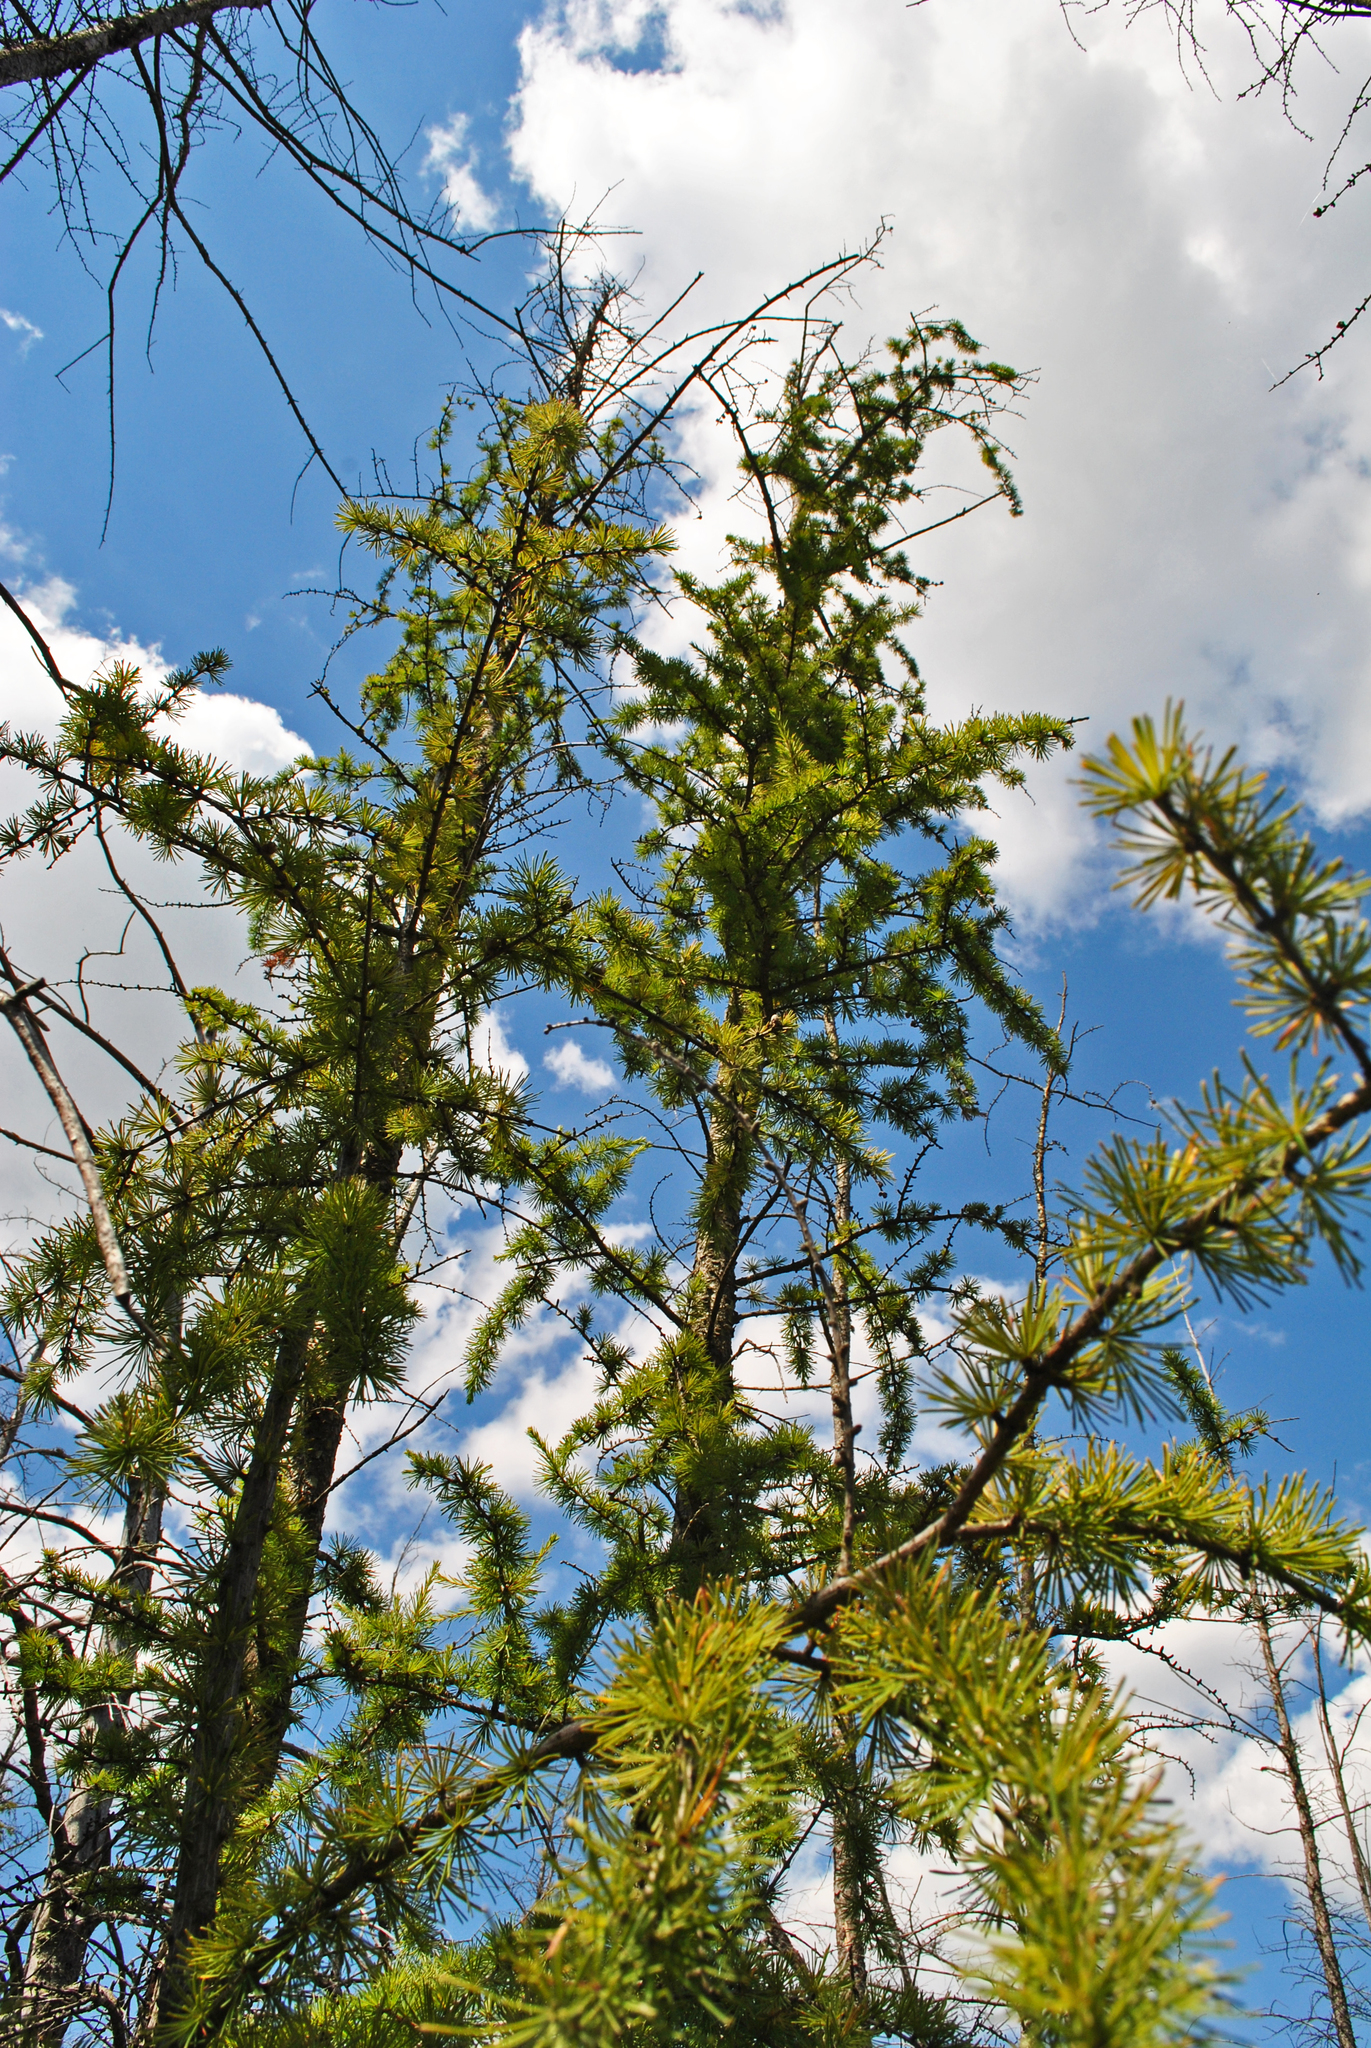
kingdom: Plantae
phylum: Tracheophyta
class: Pinopsida
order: Pinales
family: Pinaceae
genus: Larix
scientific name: Larix laricina
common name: American larch
